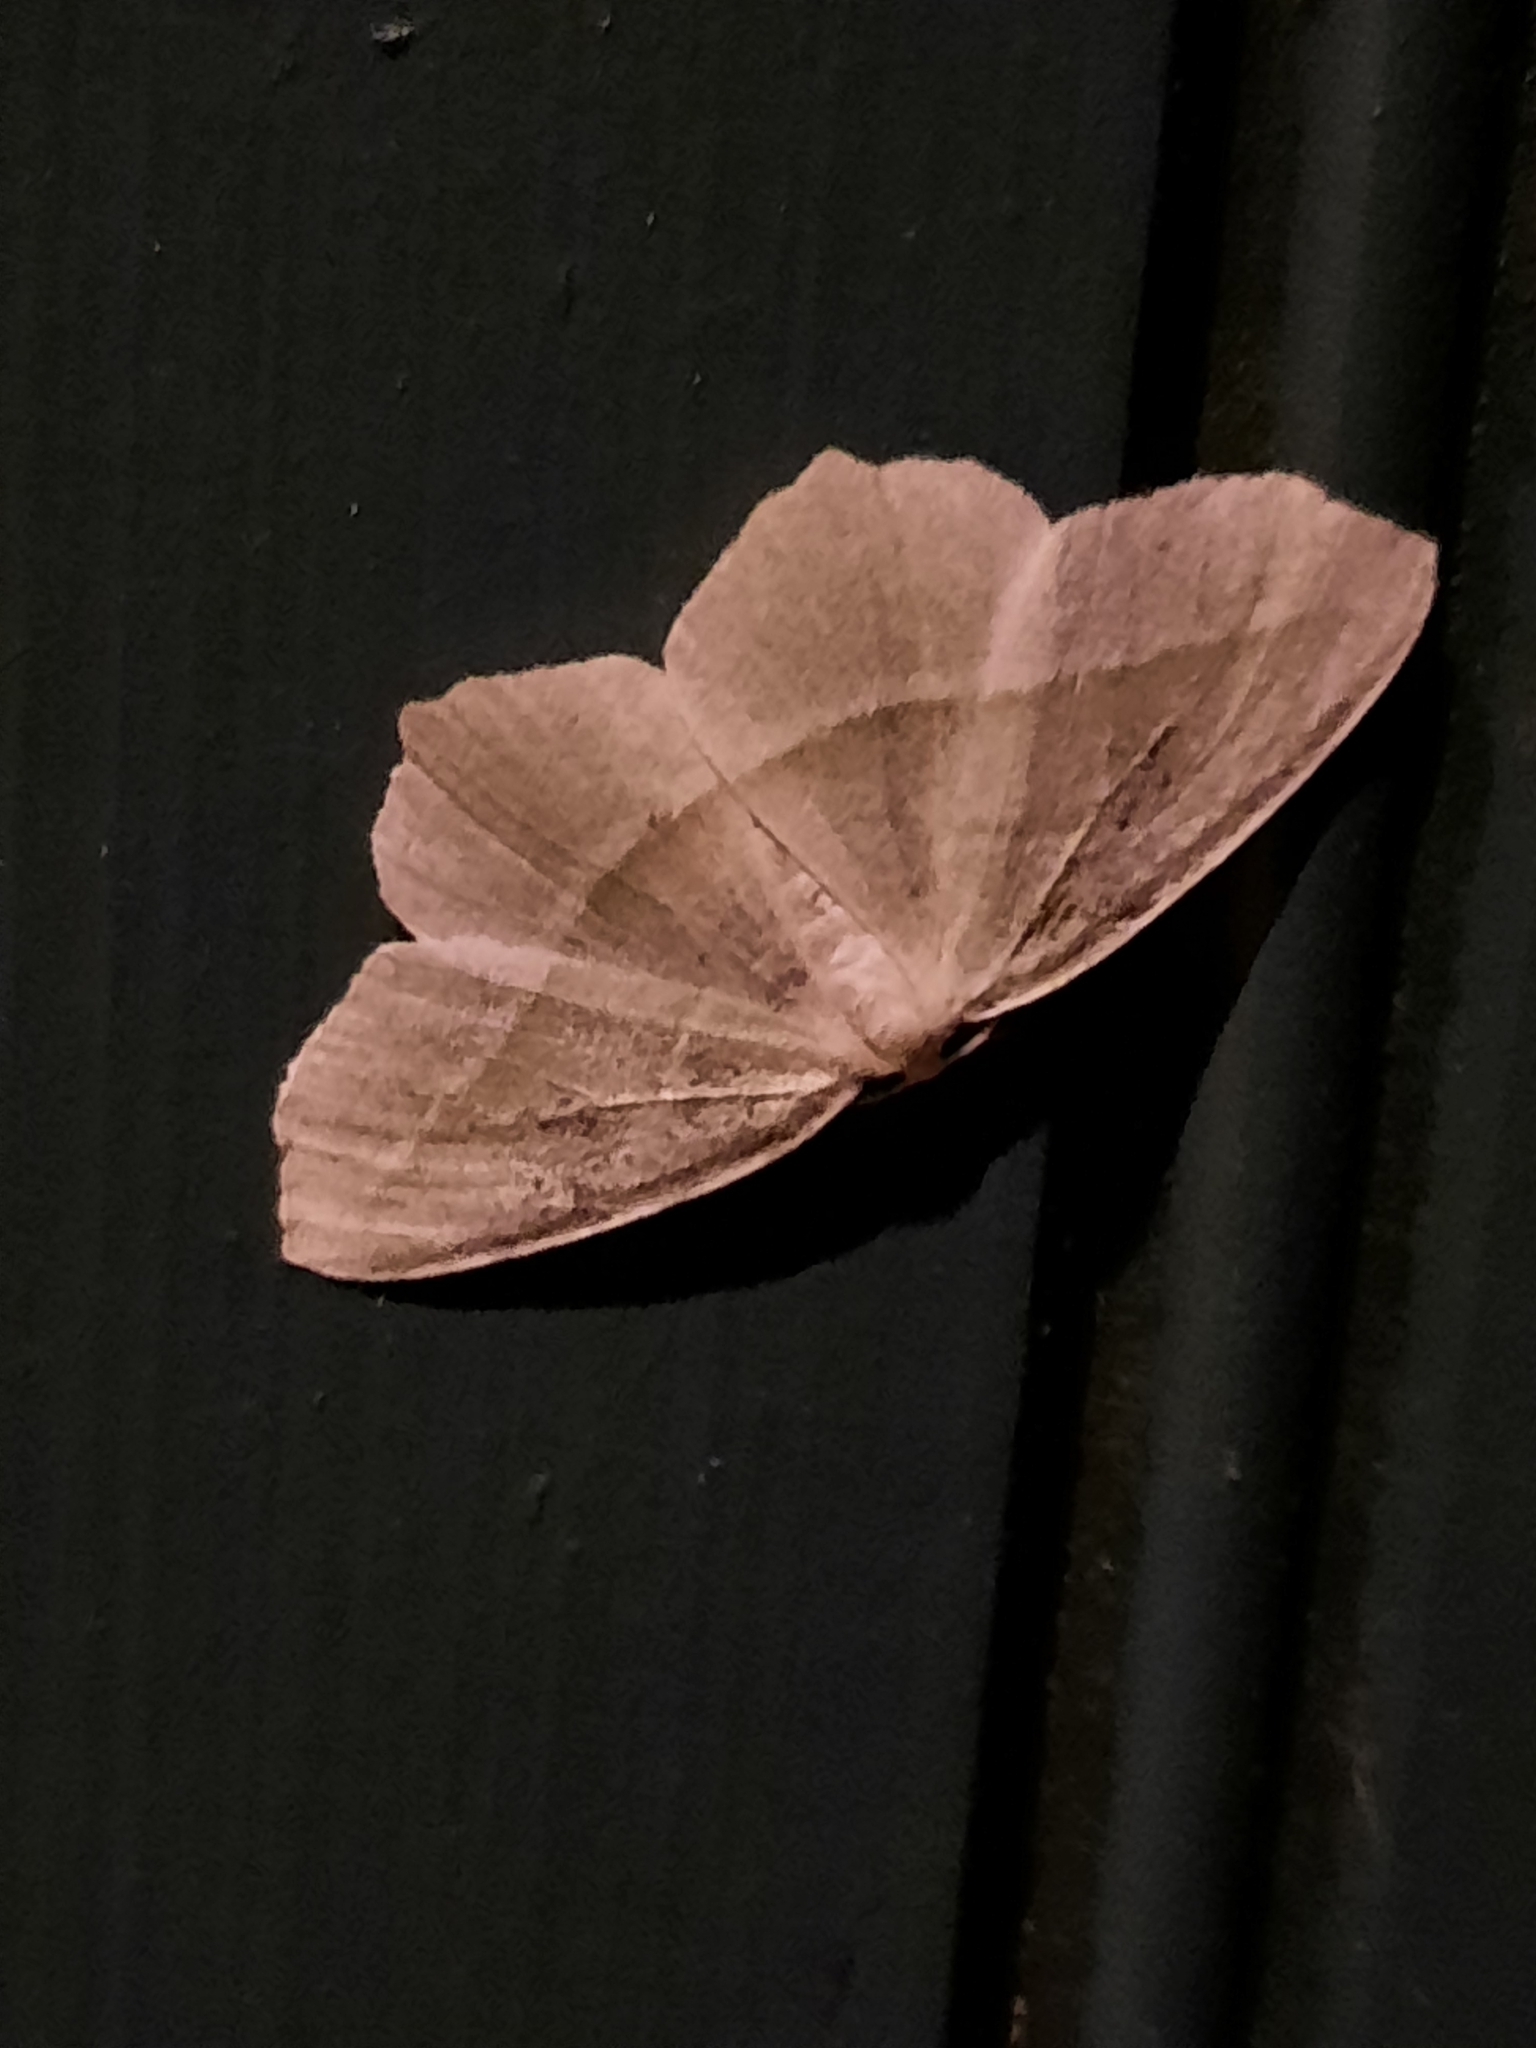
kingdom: Animalia
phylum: Arthropoda
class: Insecta
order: Lepidoptera
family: Geometridae
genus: Campaea
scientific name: Campaea perlata
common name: Fringed looper
